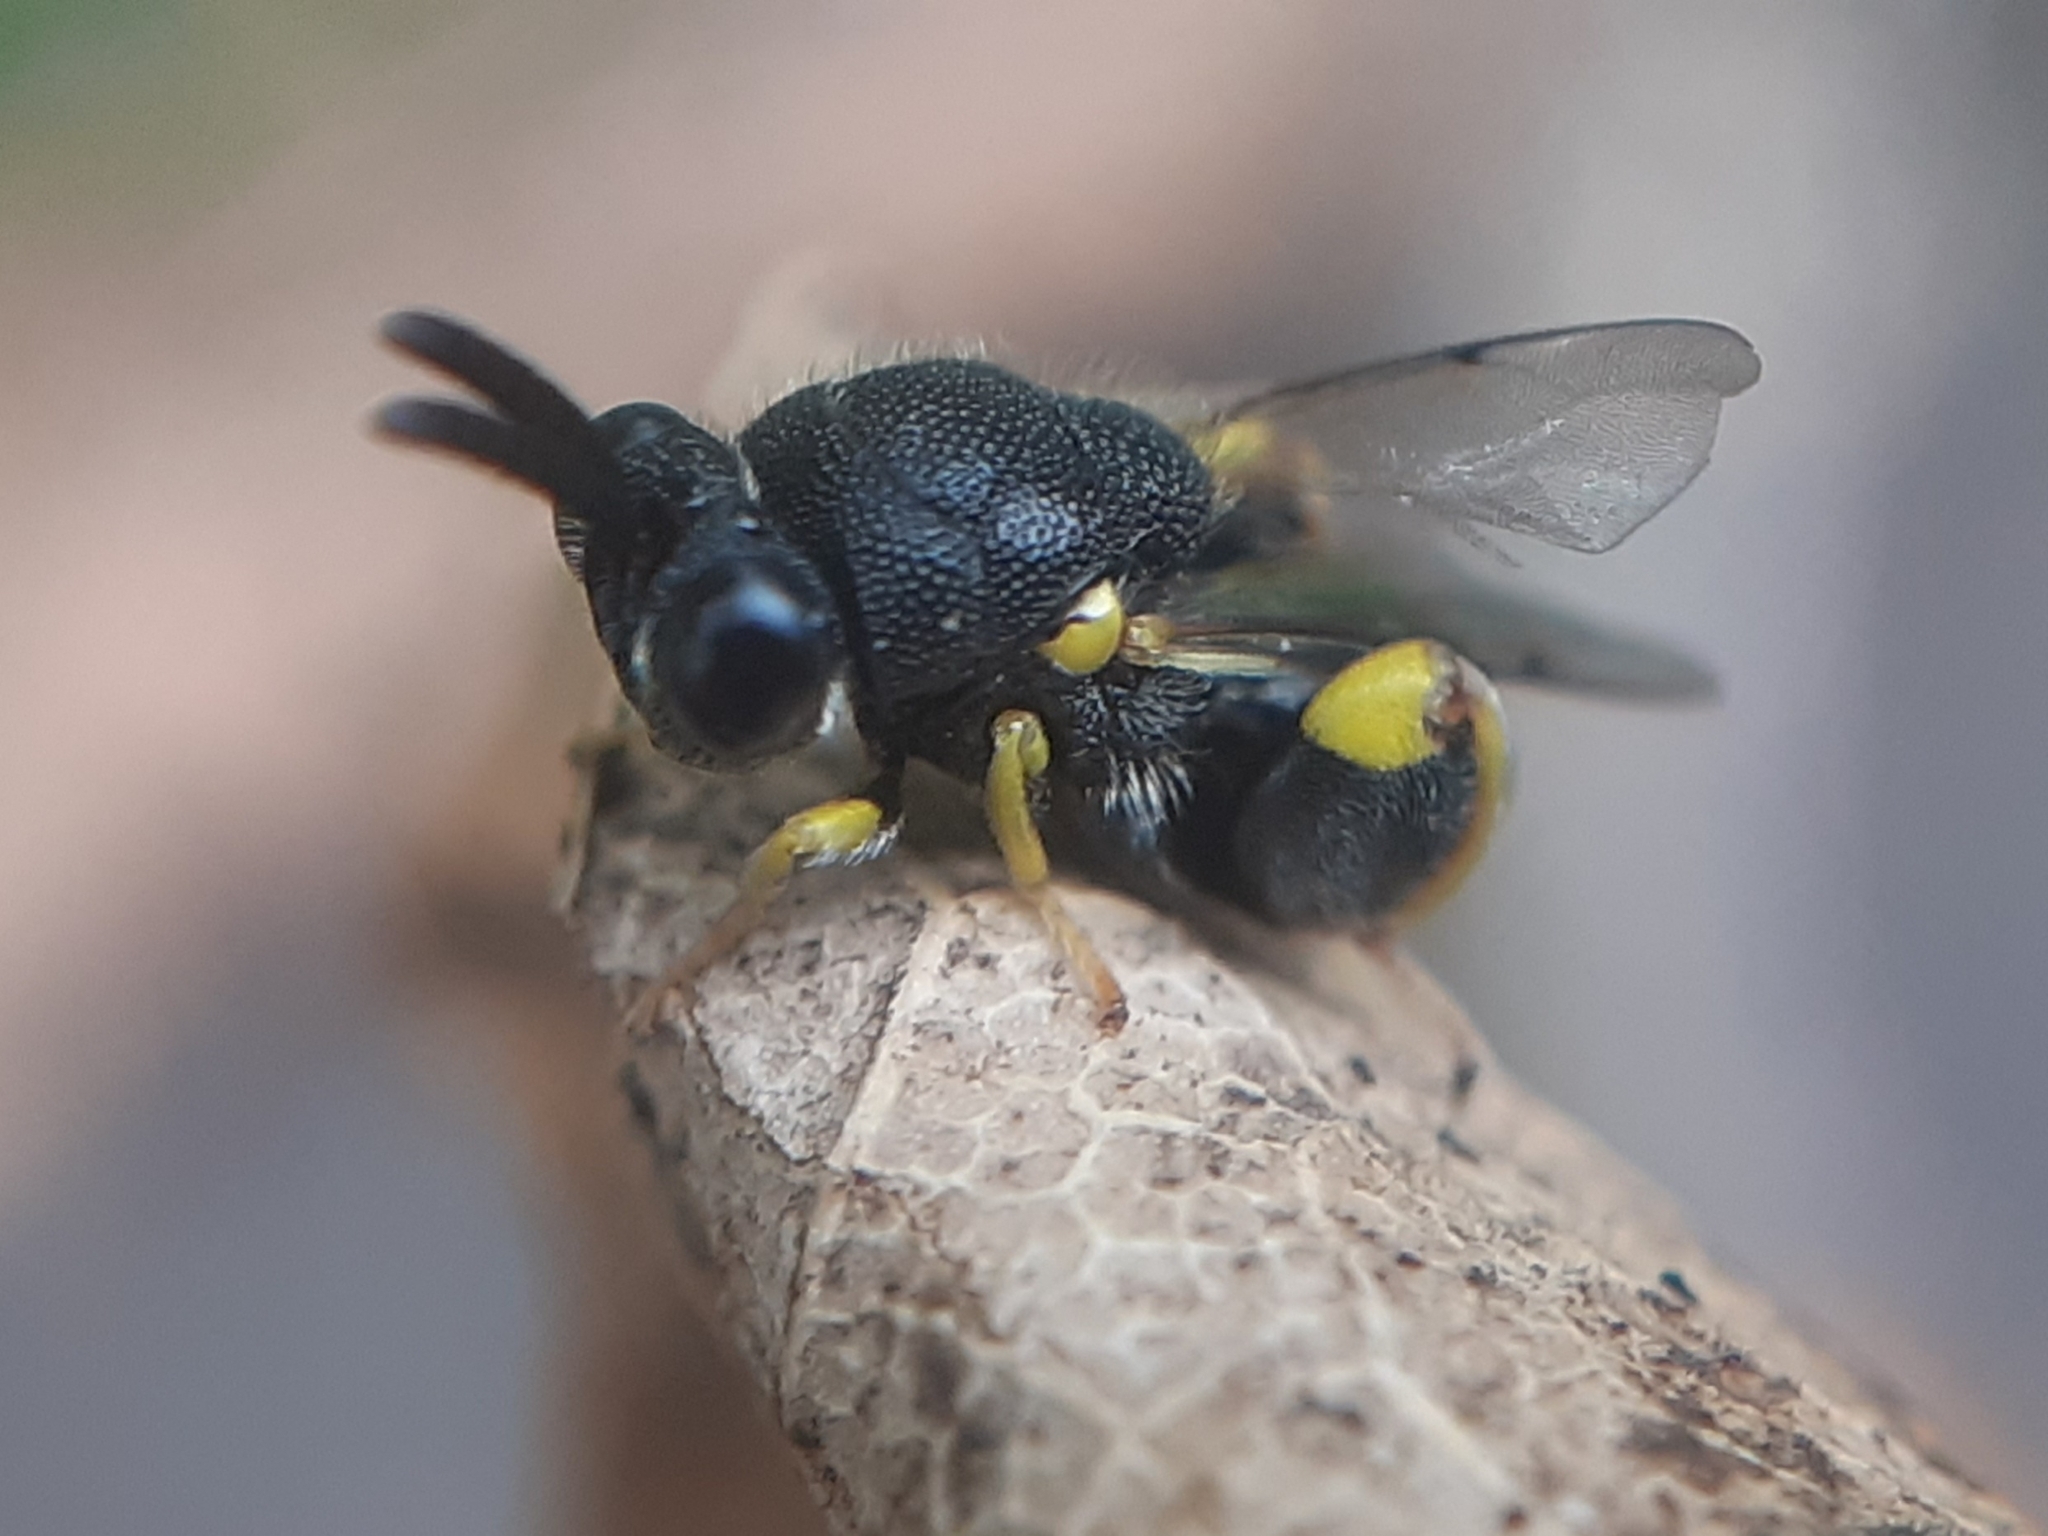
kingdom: Animalia
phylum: Arthropoda
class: Insecta
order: Hymenoptera
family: Chalcididae
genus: Brachymeria
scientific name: Brachymeria tibialis
